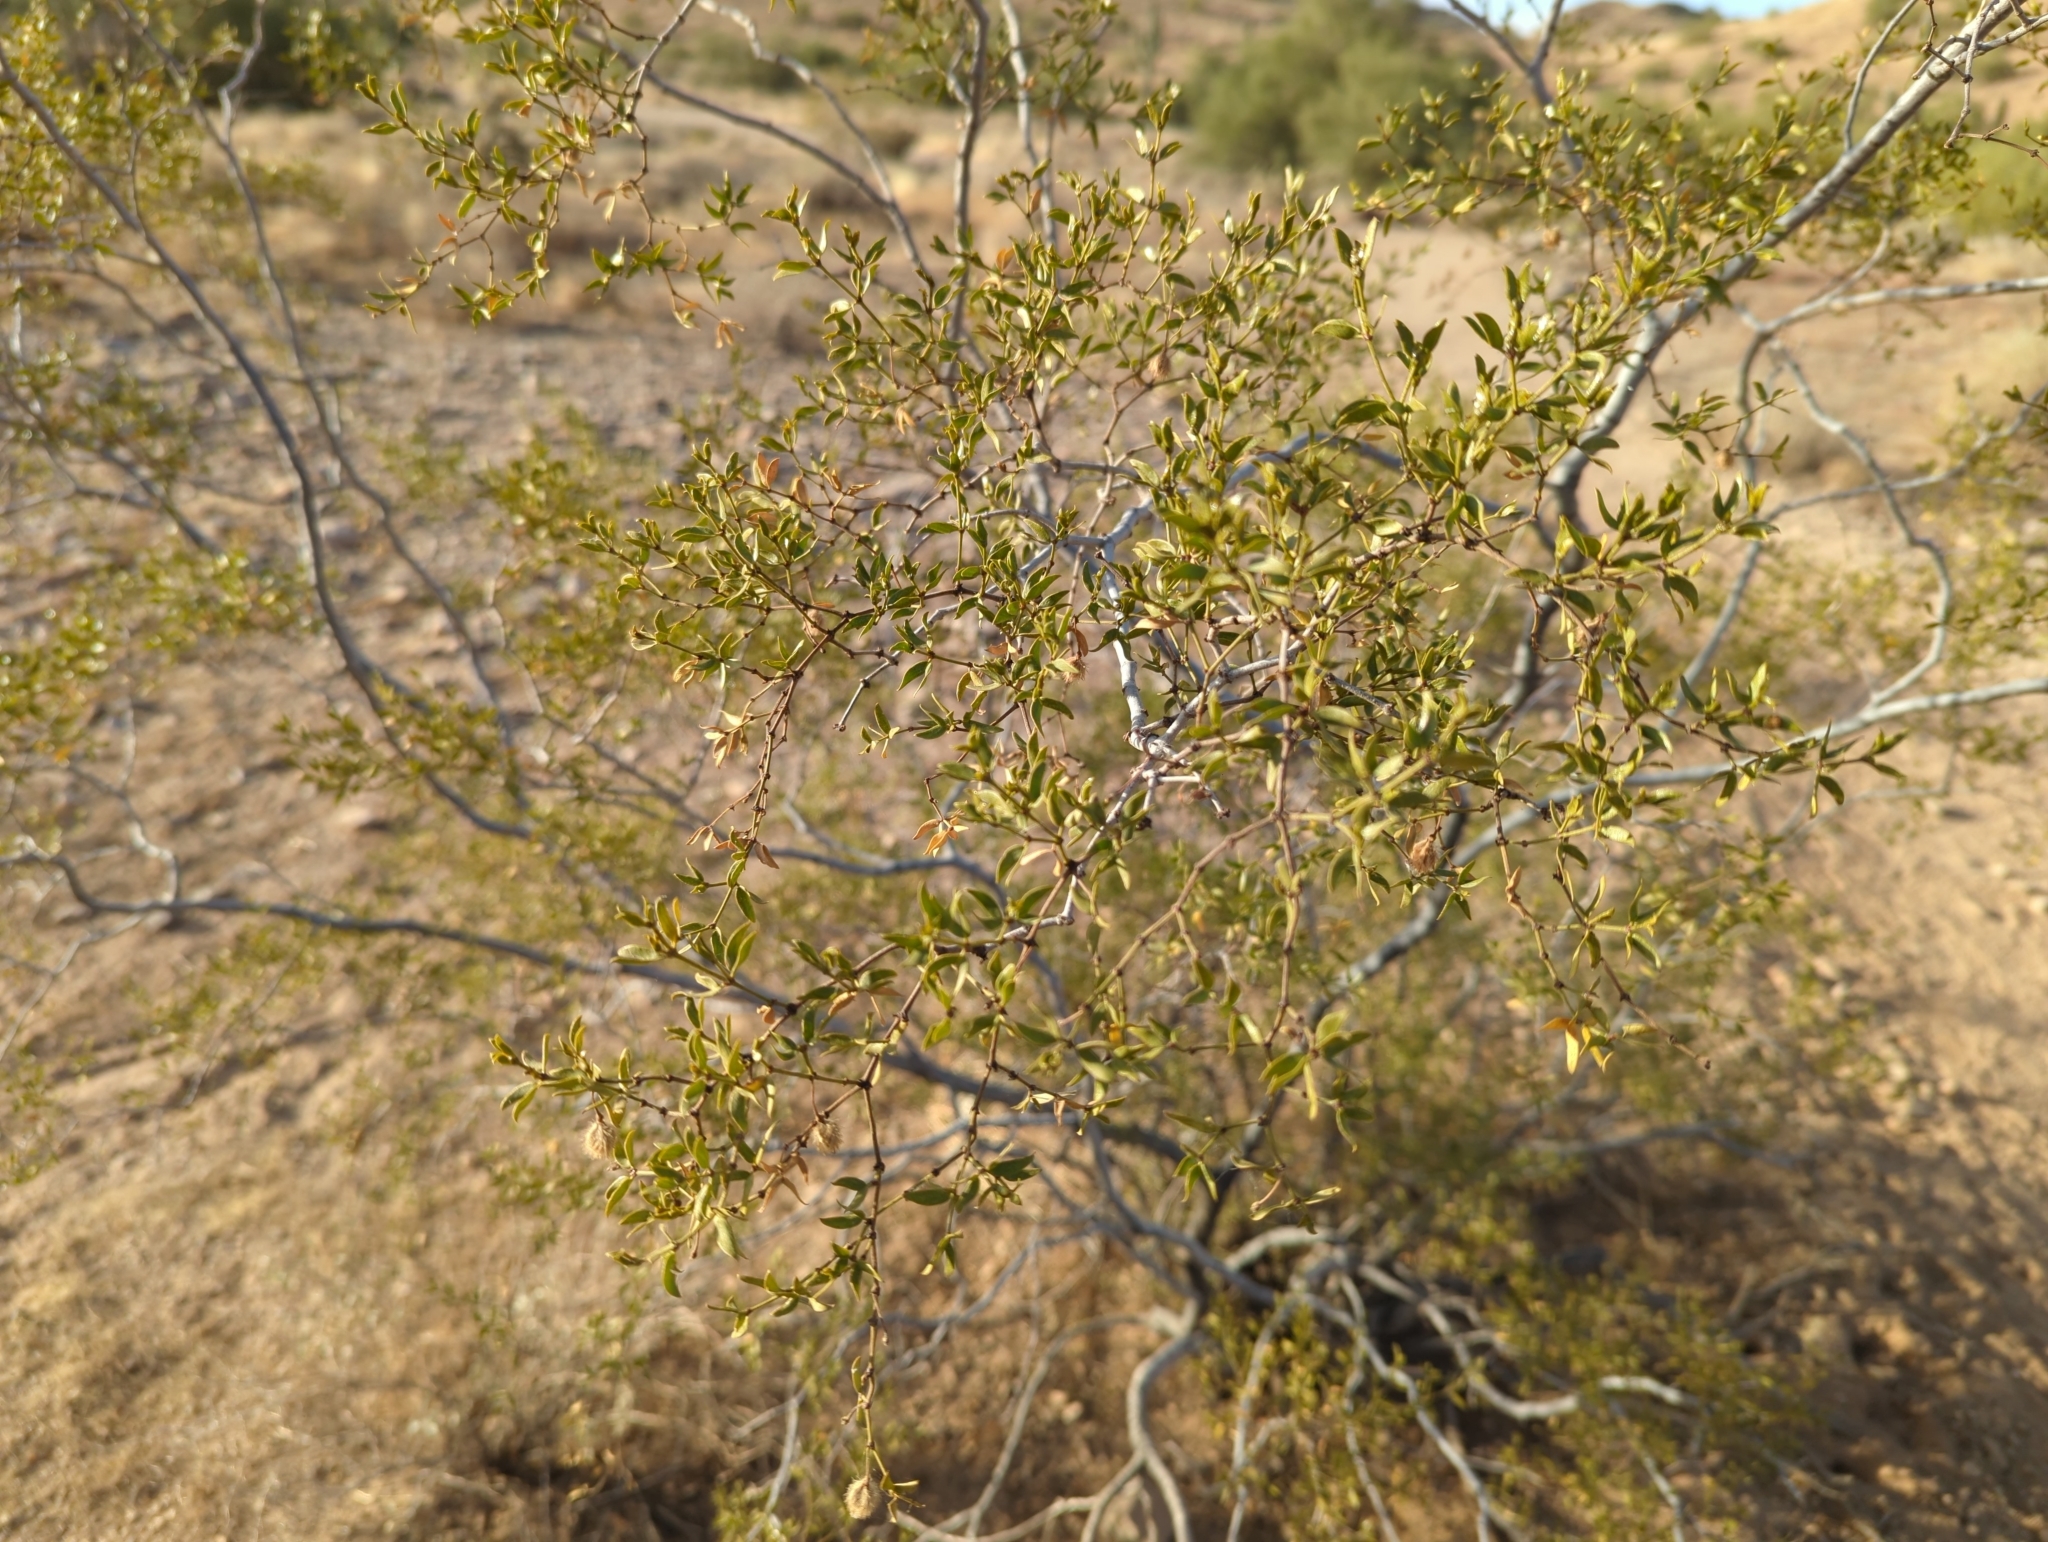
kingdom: Plantae
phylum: Tracheophyta
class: Magnoliopsida
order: Zygophyllales
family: Zygophyllaceae
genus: Larrea
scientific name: Larrea tridentata
